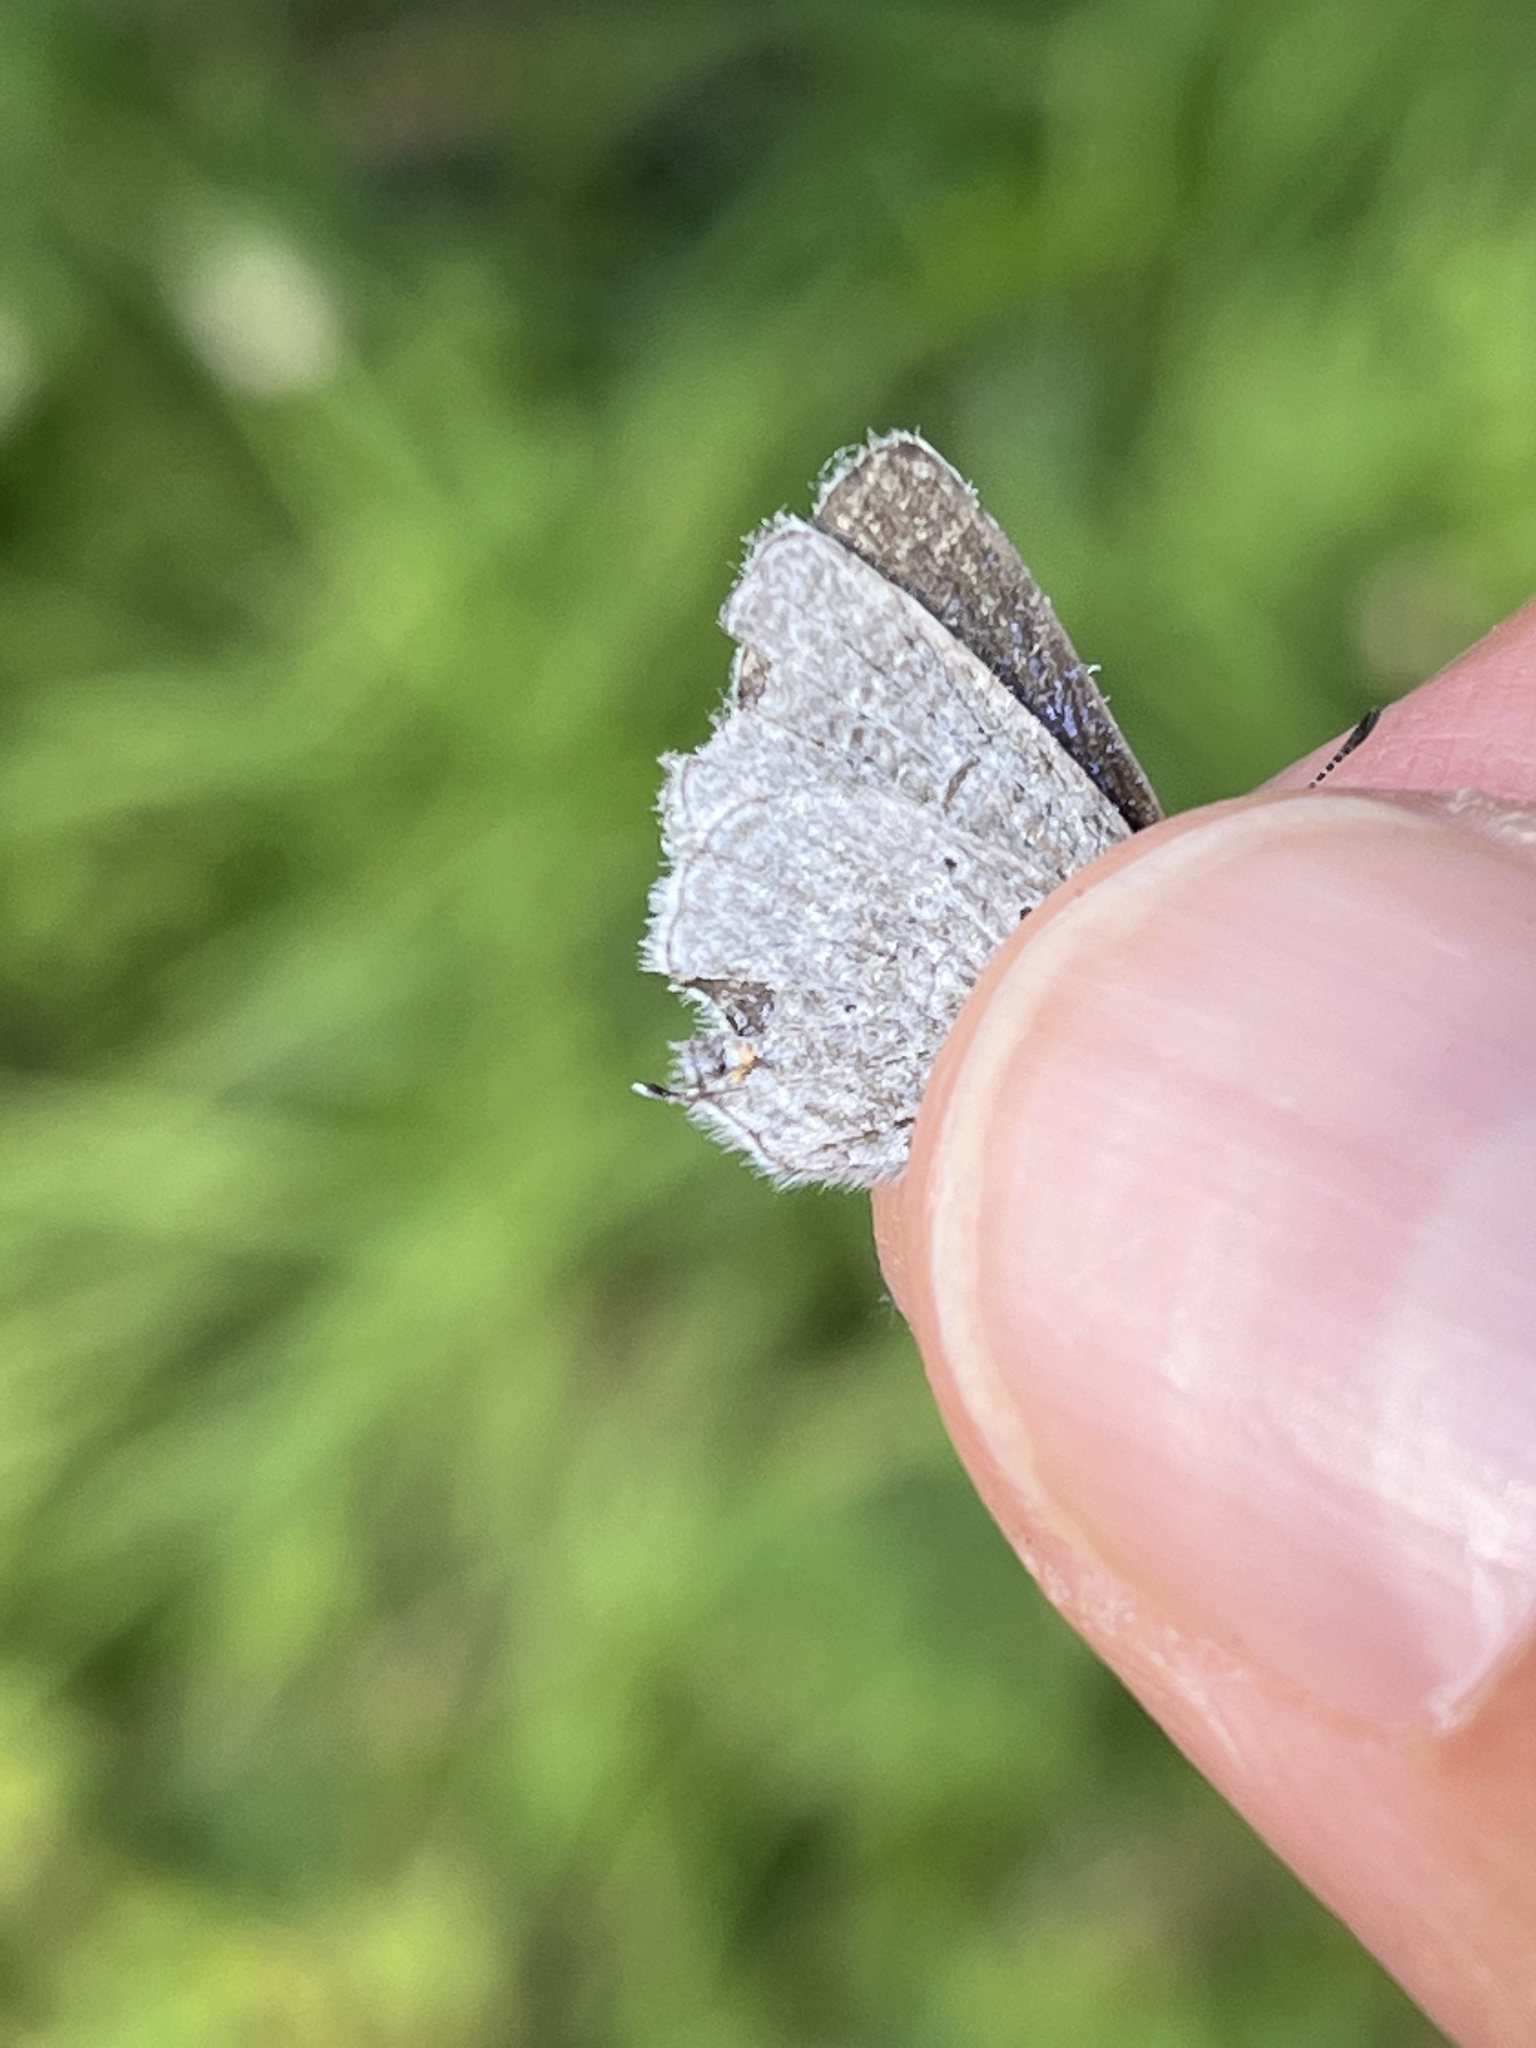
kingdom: Animalia
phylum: Arthropoda
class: Insecta
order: Lepidoptera
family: Lycaenidae
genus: Elkalyce
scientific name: Elkalyce amyntula
